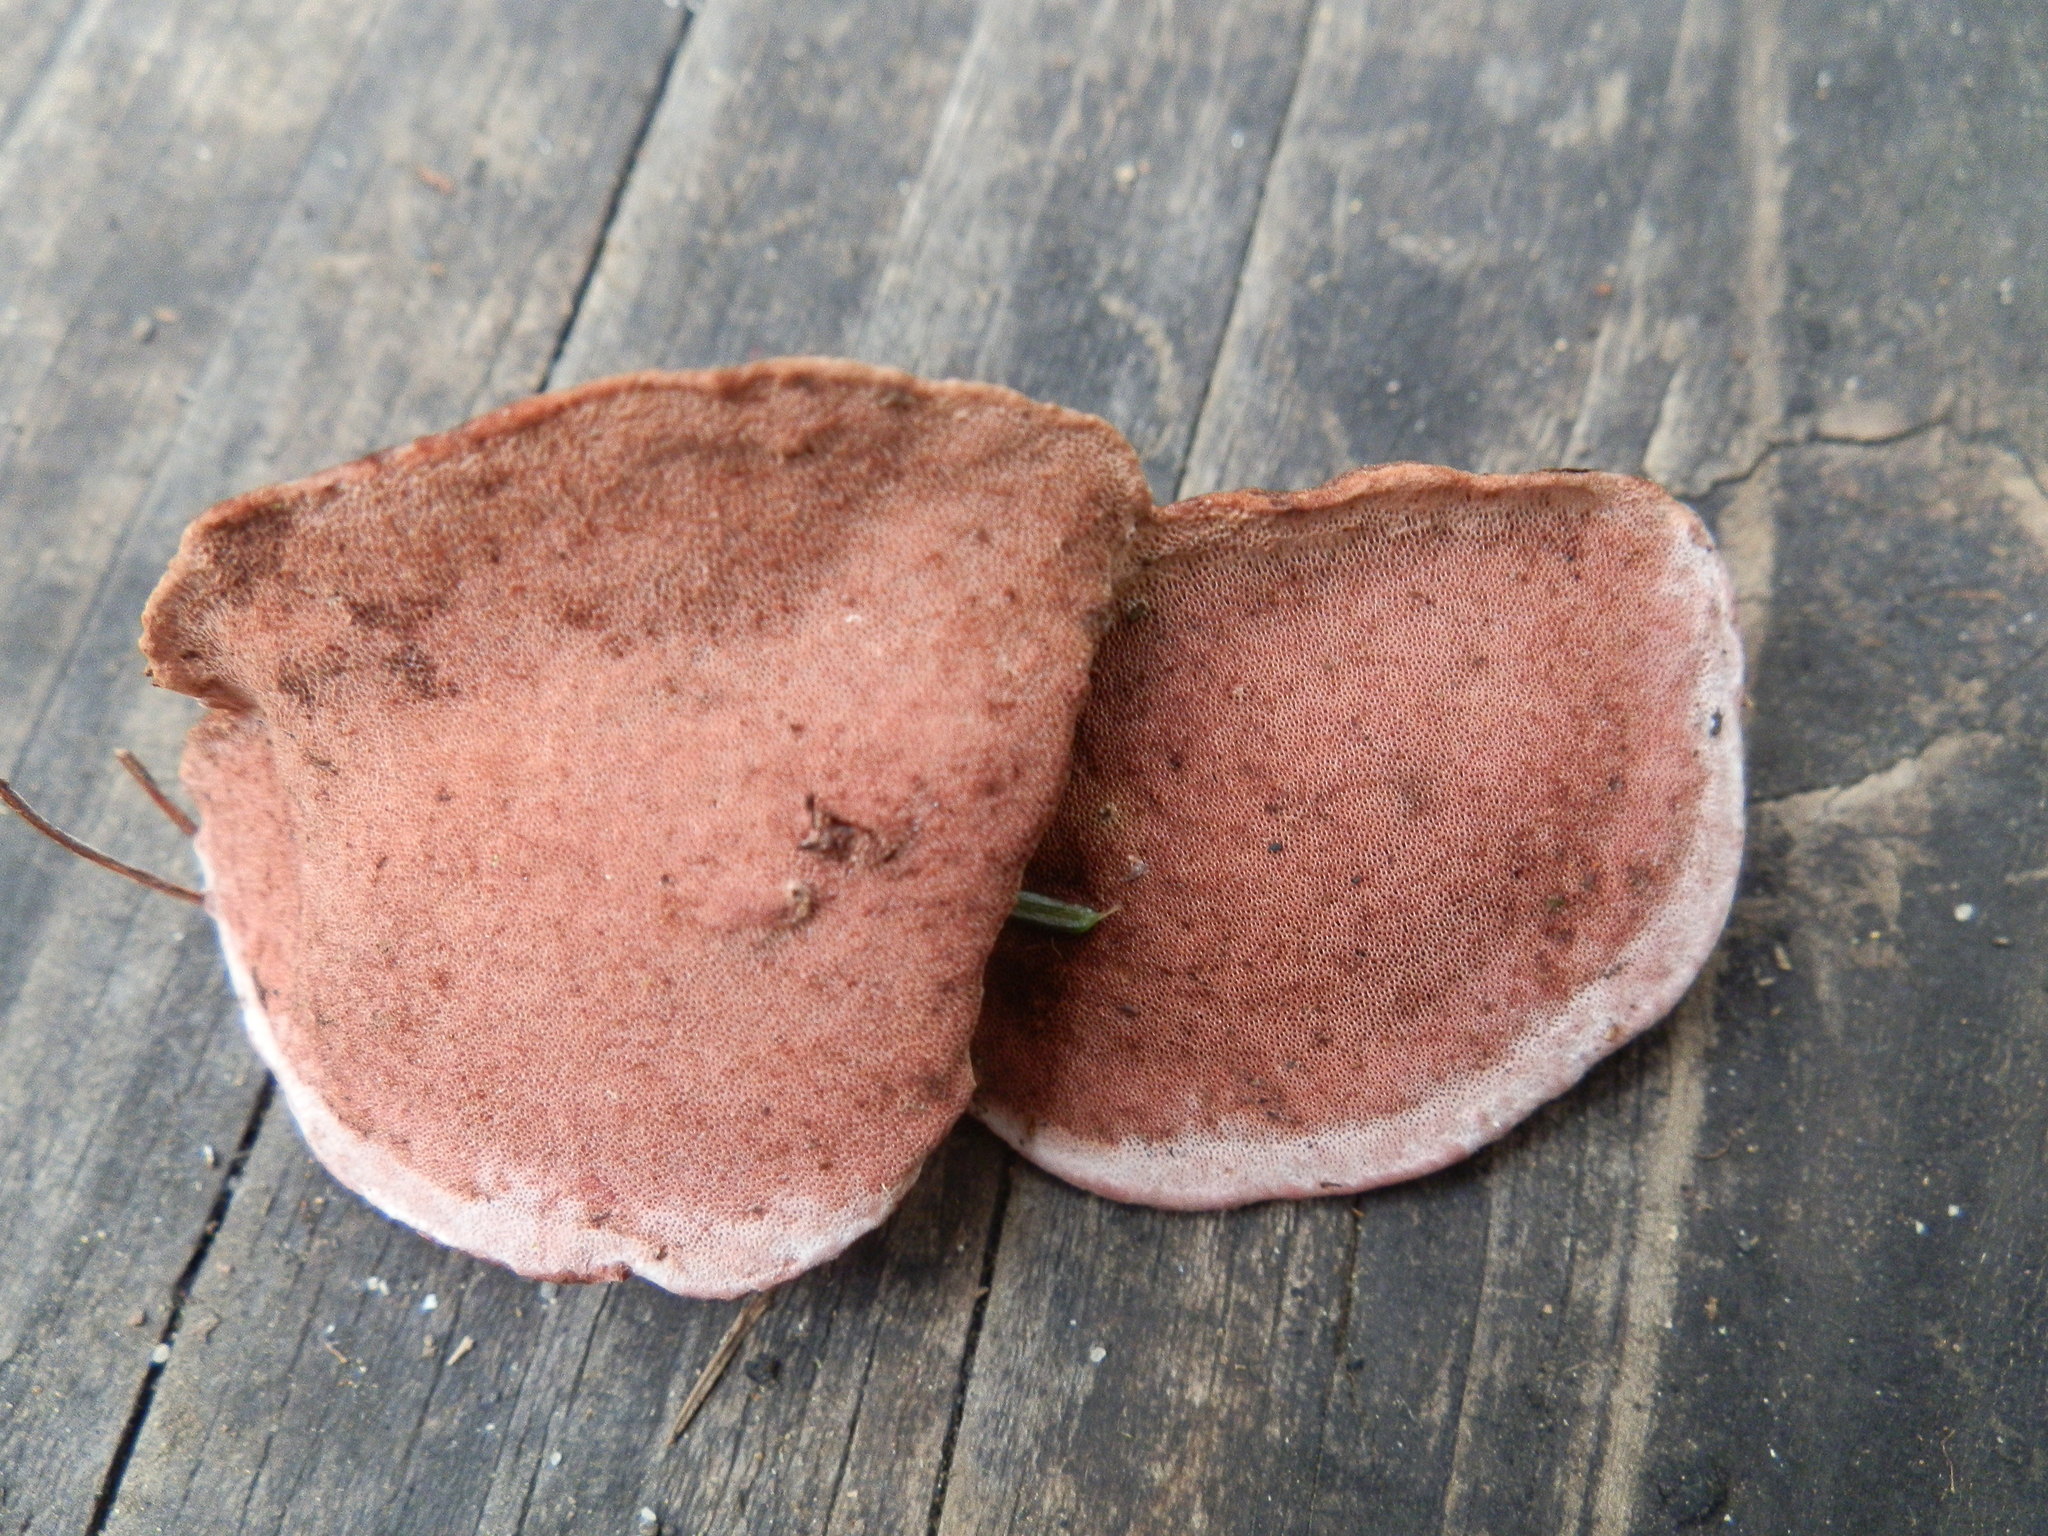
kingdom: Fungi
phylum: Basidiomycota
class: Agaricomycetes
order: Polyporales
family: Fomitopsidaceae
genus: Rhodofomes
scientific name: Rhodofomes cajanderi
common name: Rosy conk
